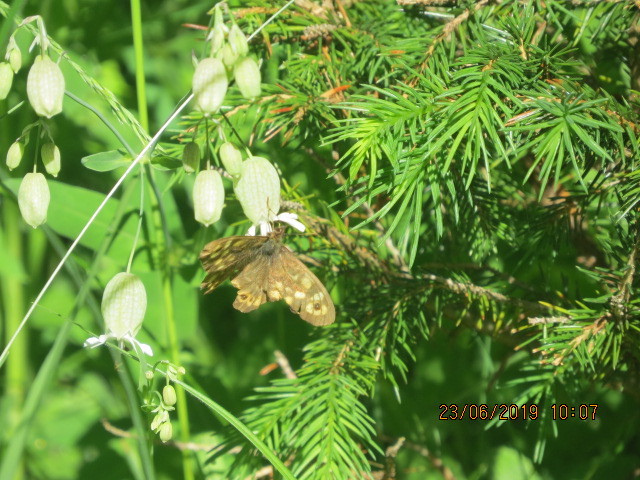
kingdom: Animalia
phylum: Arthropoda
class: Insecta
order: Lepidoptera
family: Nymphalidae
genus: Pararge
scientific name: Pararge aegeria
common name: Speckled wood
